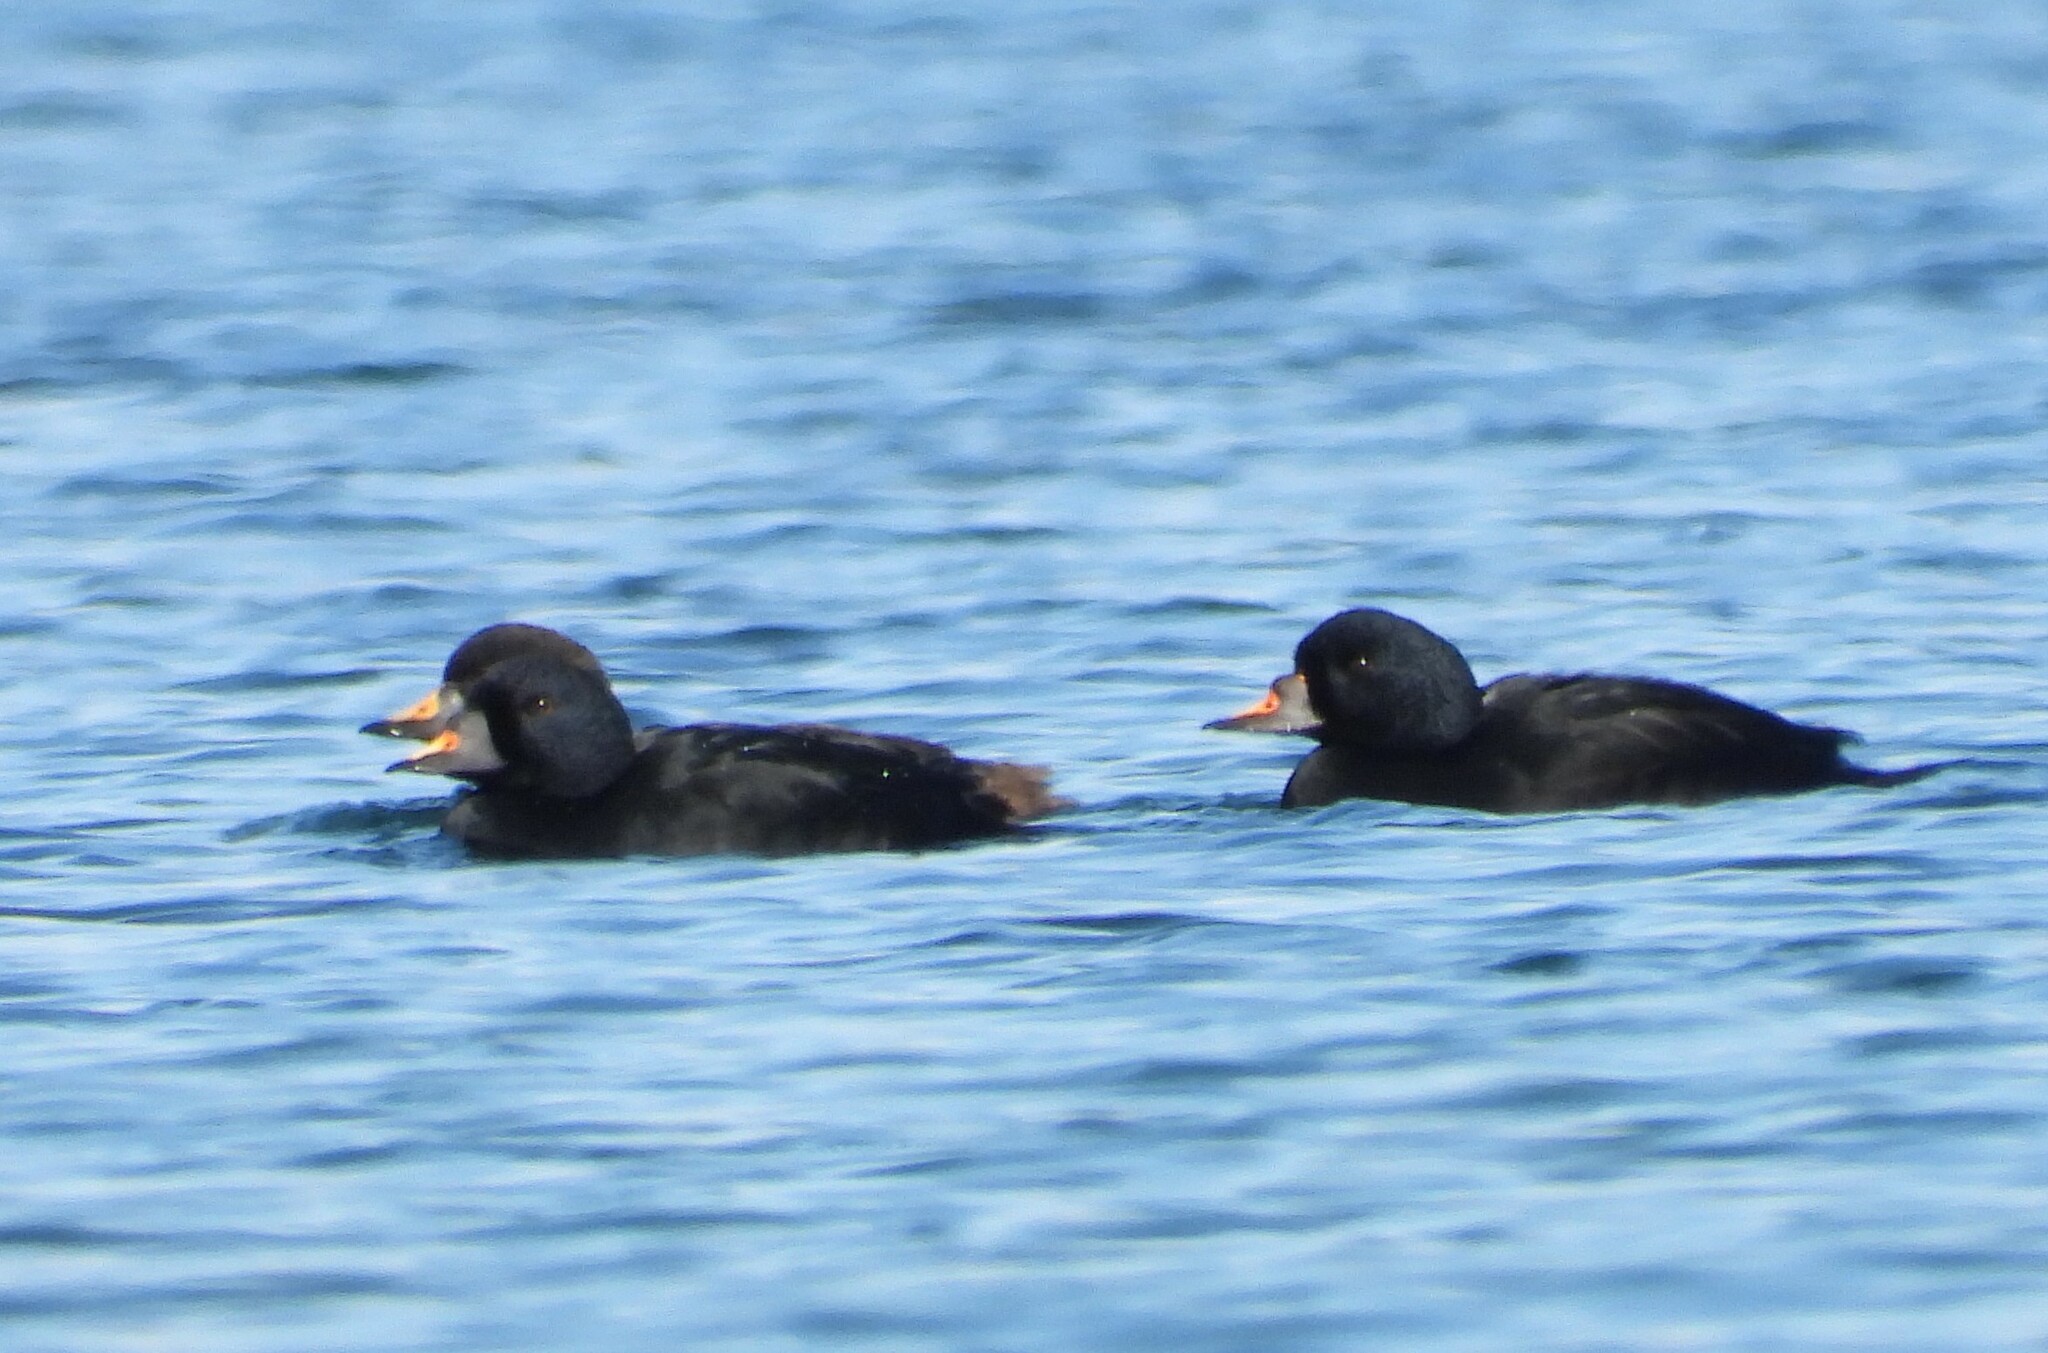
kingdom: Animalia
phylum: Chordata
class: Aves
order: Anseriformes
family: Anatidae
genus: Melanitta
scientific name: Melanitta nigra
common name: Common scoter
